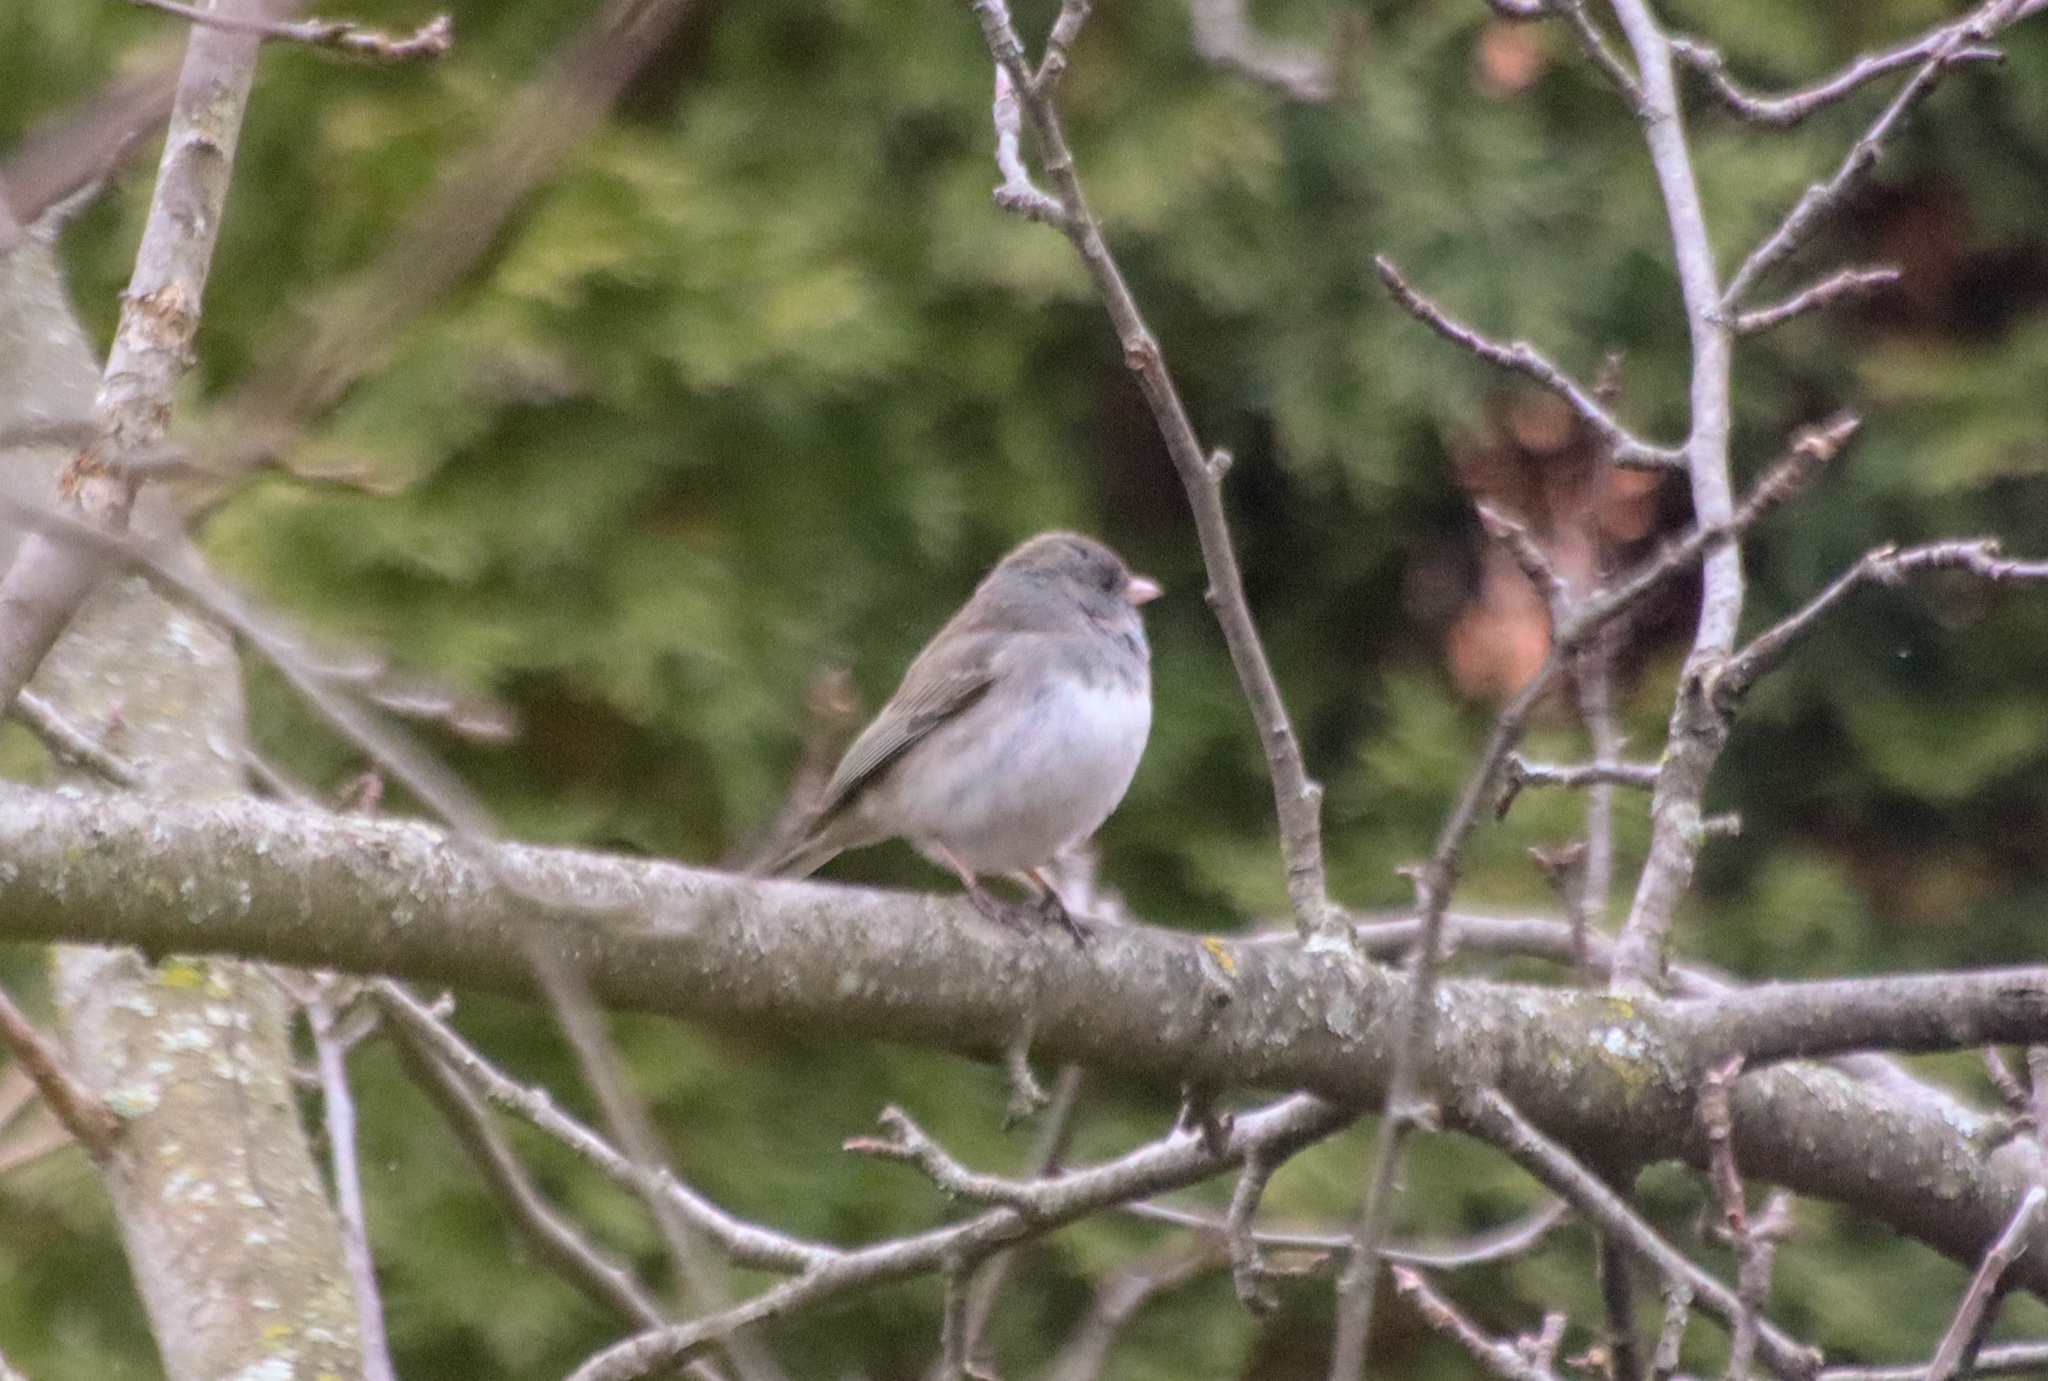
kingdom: Animalia
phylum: Chordata
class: Aves
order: Passeriformes
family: Passerellidae
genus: Junco
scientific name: Junco hyemalis
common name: Dark-eyed junco
